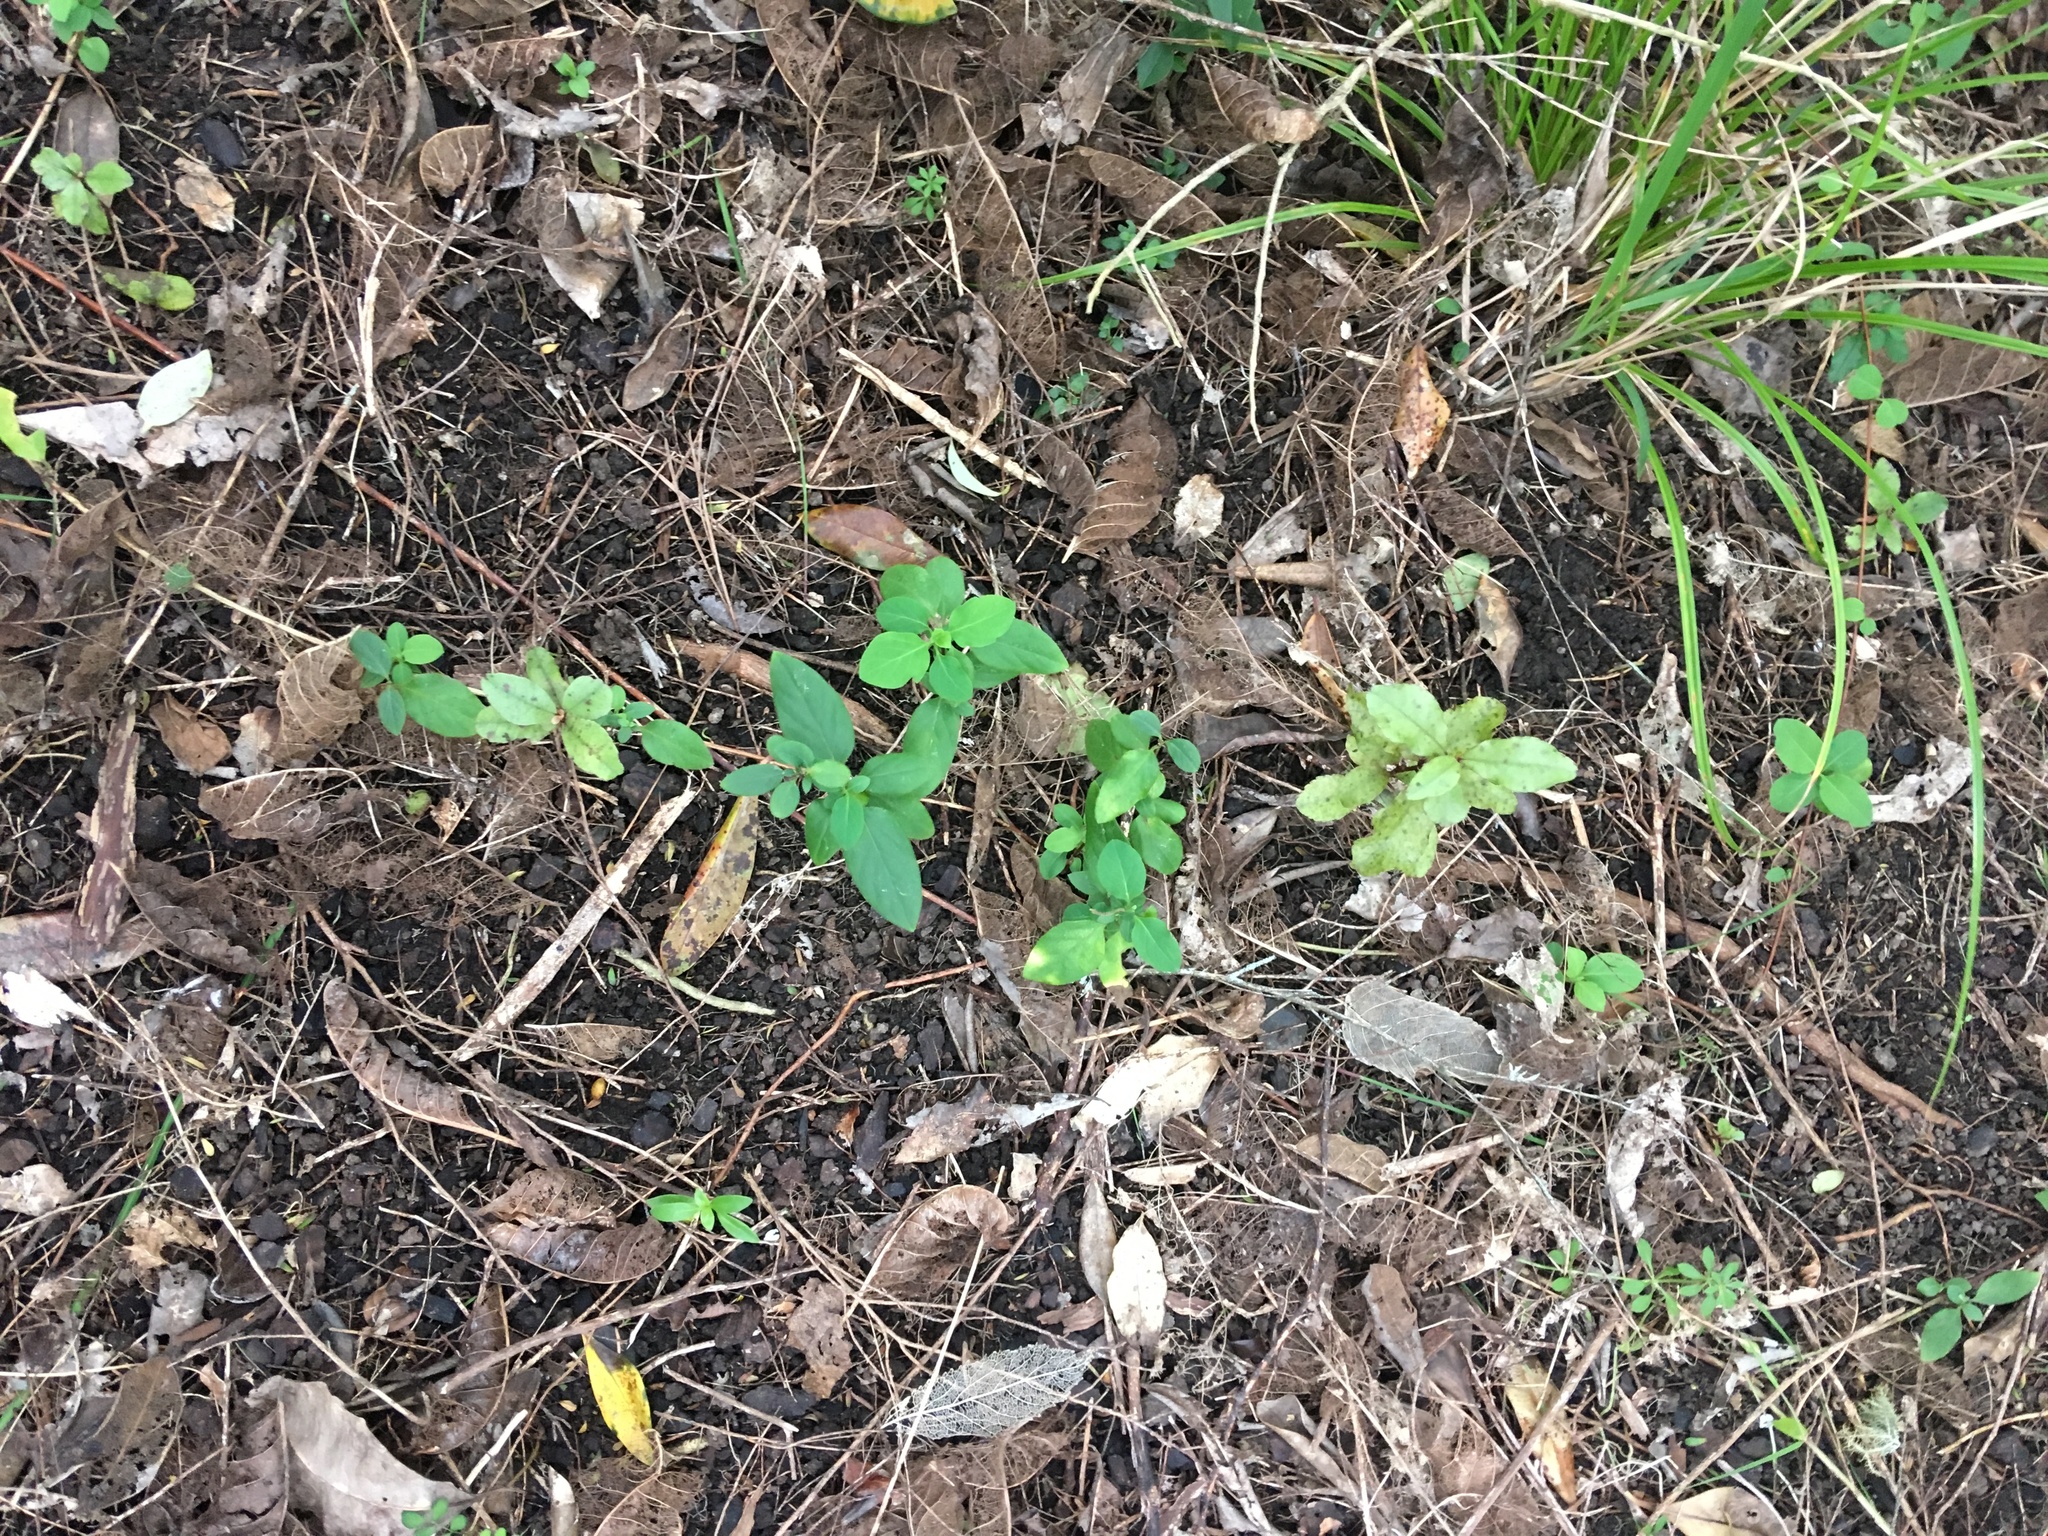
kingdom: Plantae
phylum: Tracheophyta
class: Magnoliopsida
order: Dipsacales
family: Caprifoliaceae
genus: Lonicera
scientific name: Lonicera japonica
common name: Japanese honeysuckle
